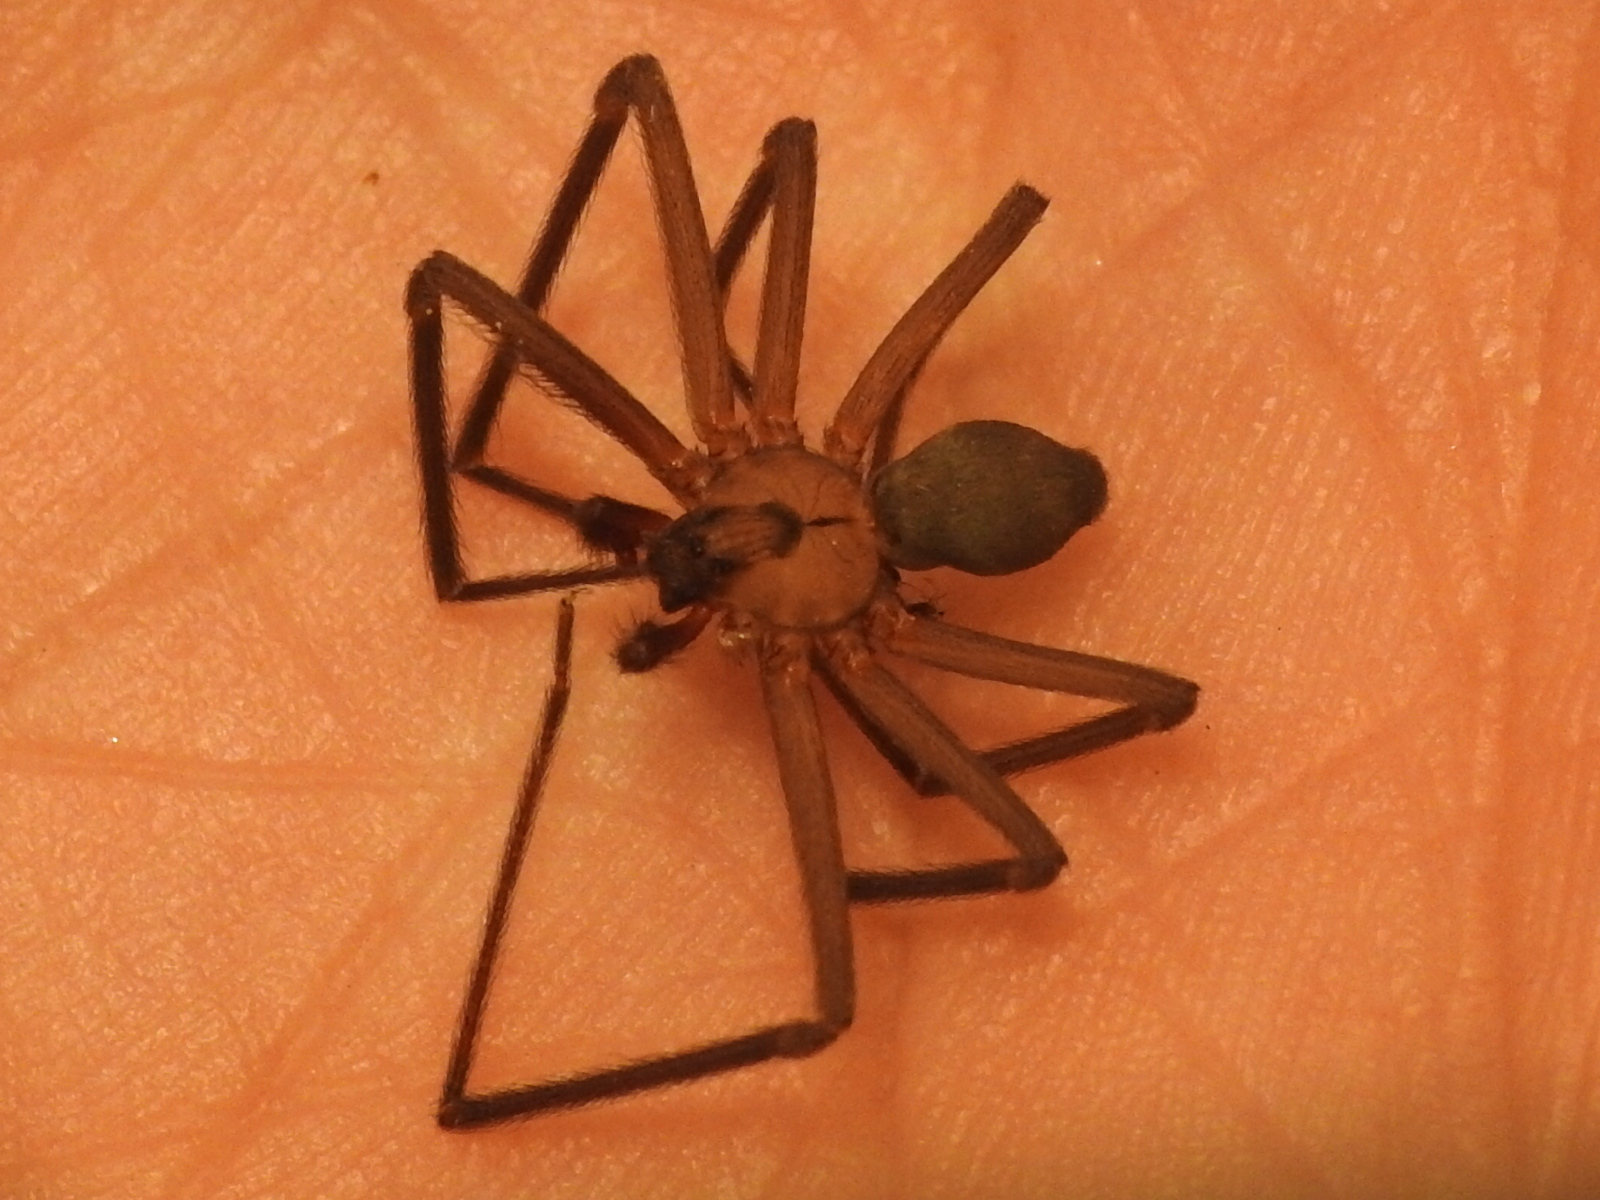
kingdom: Animalia
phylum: Arthropoda
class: Arachnida
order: Araneae
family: Sicariidae
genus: Loxosceles
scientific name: Loxosceles reclusa
